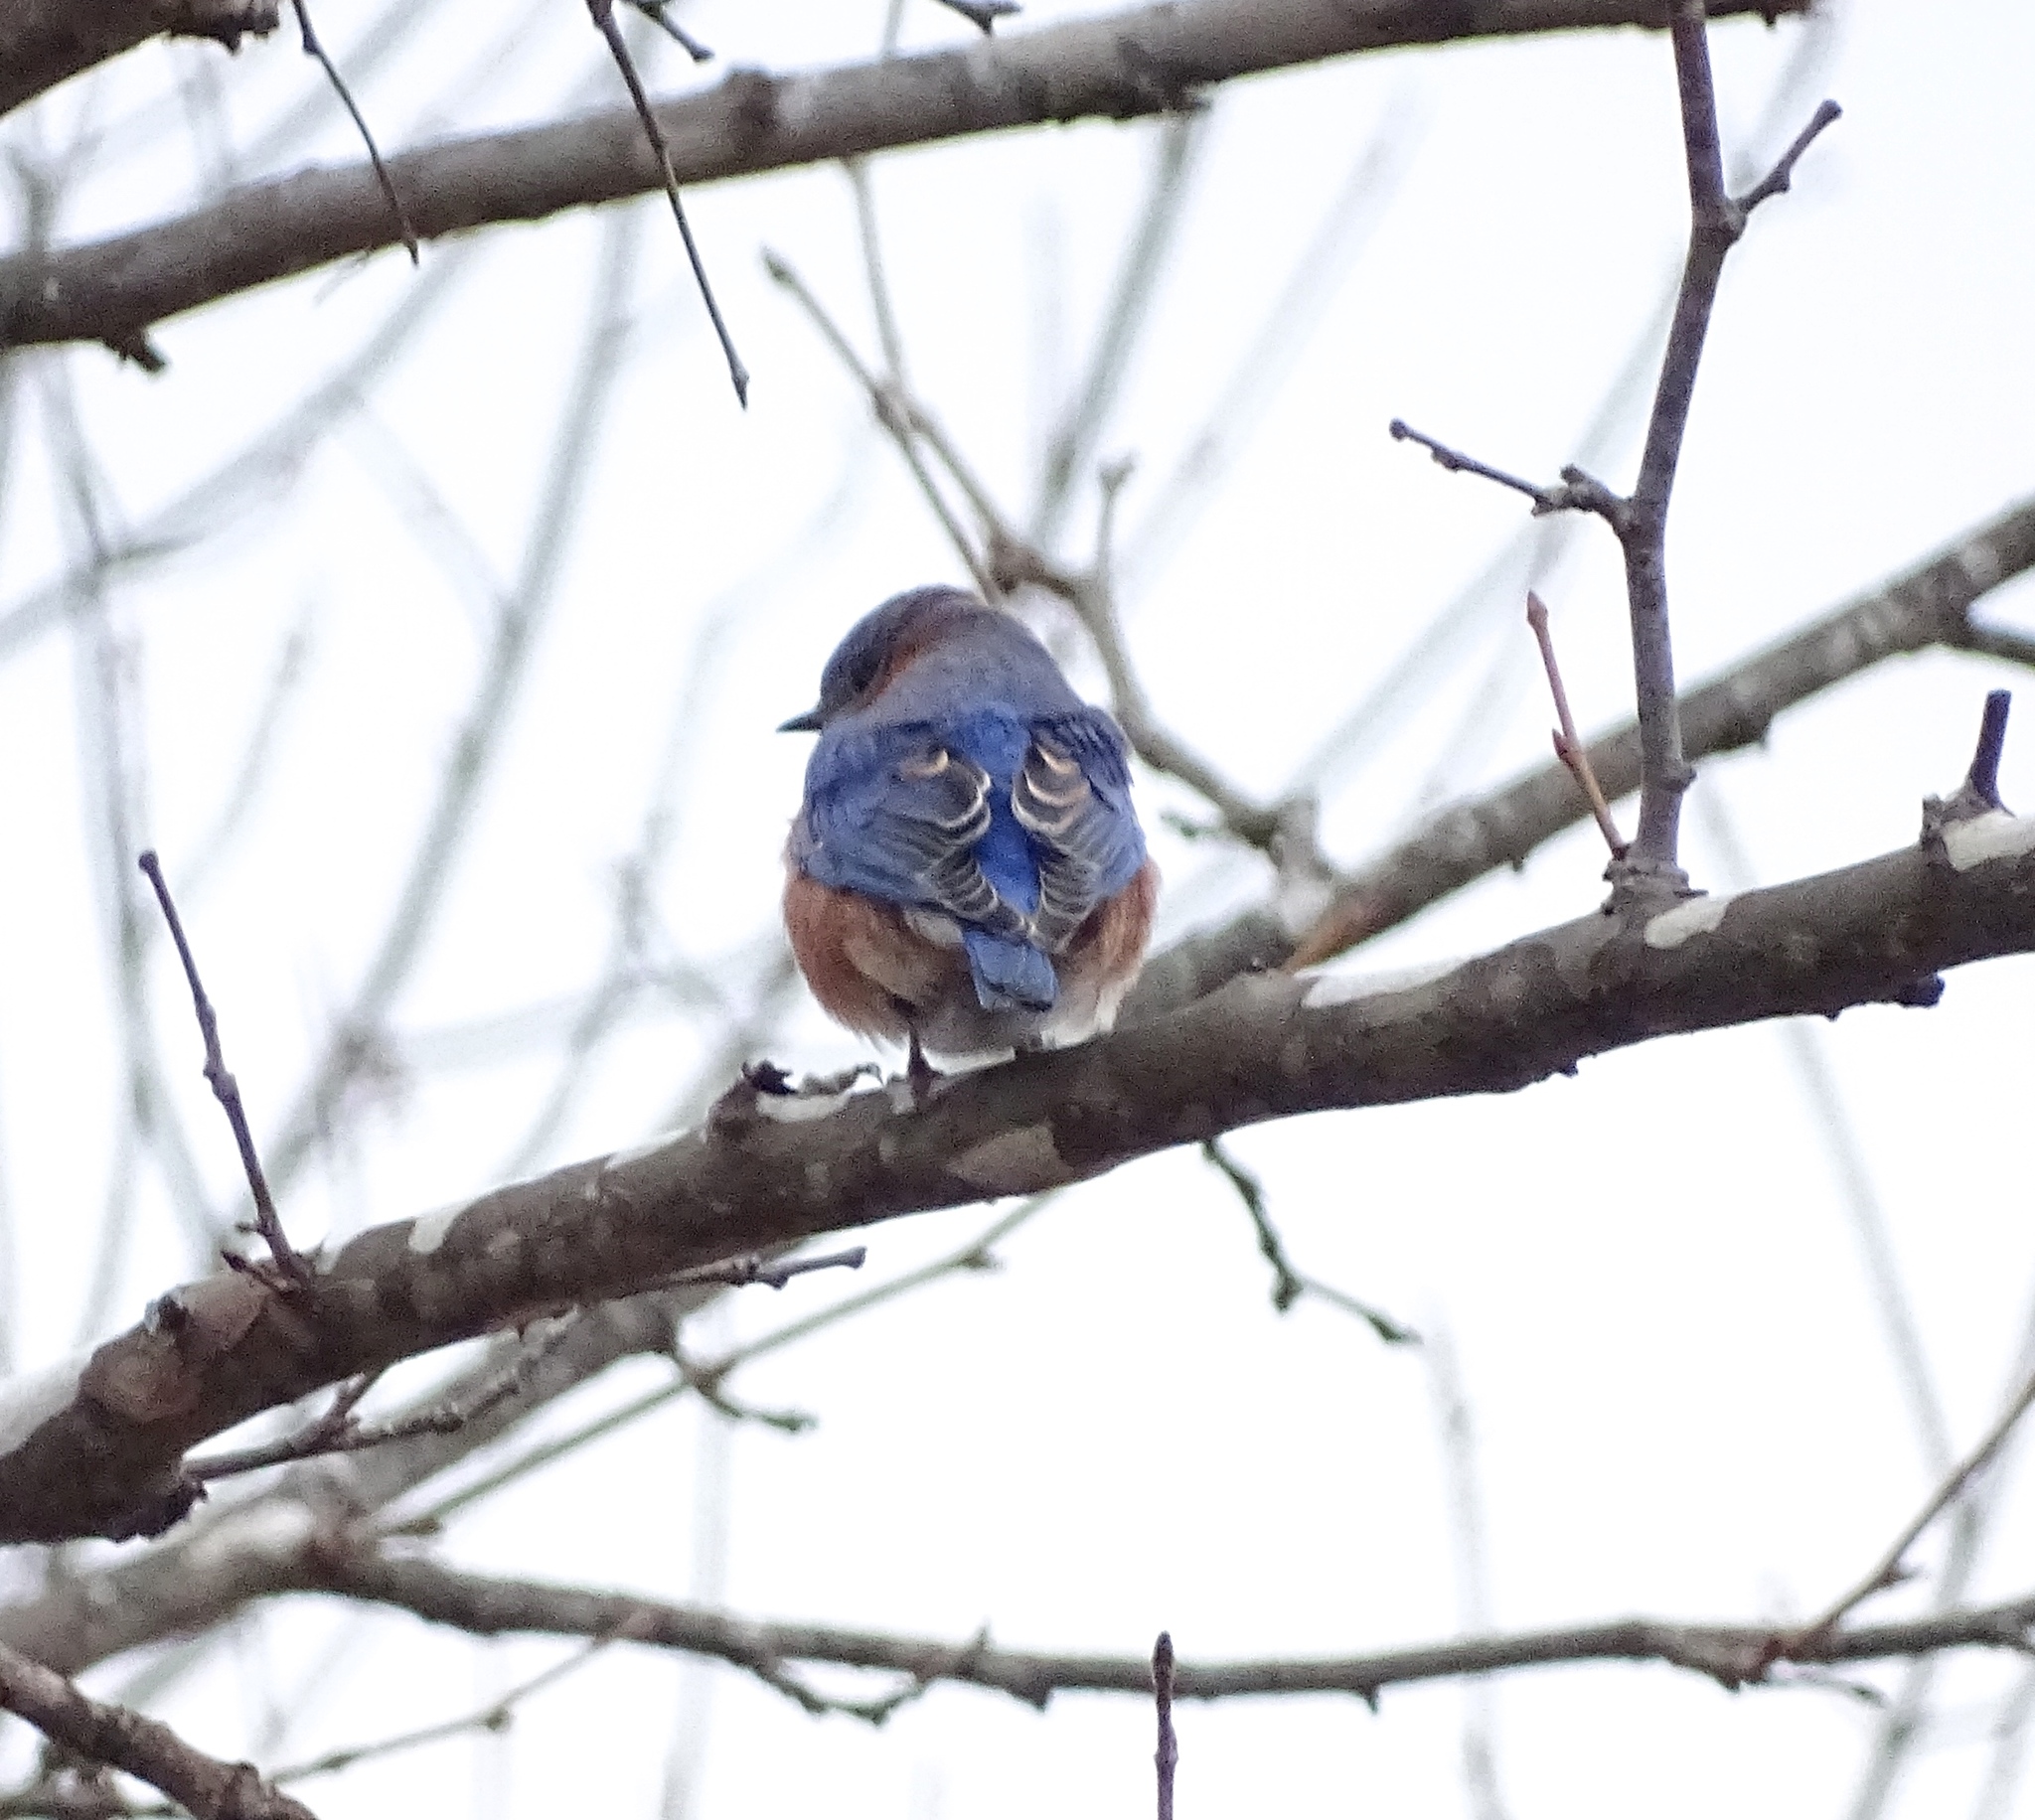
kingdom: Animalia
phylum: Chordata
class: Aves
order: Passeriformes
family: Turdidae
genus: Sialia
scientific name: Sialia sialis
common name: Eastern bluebird
